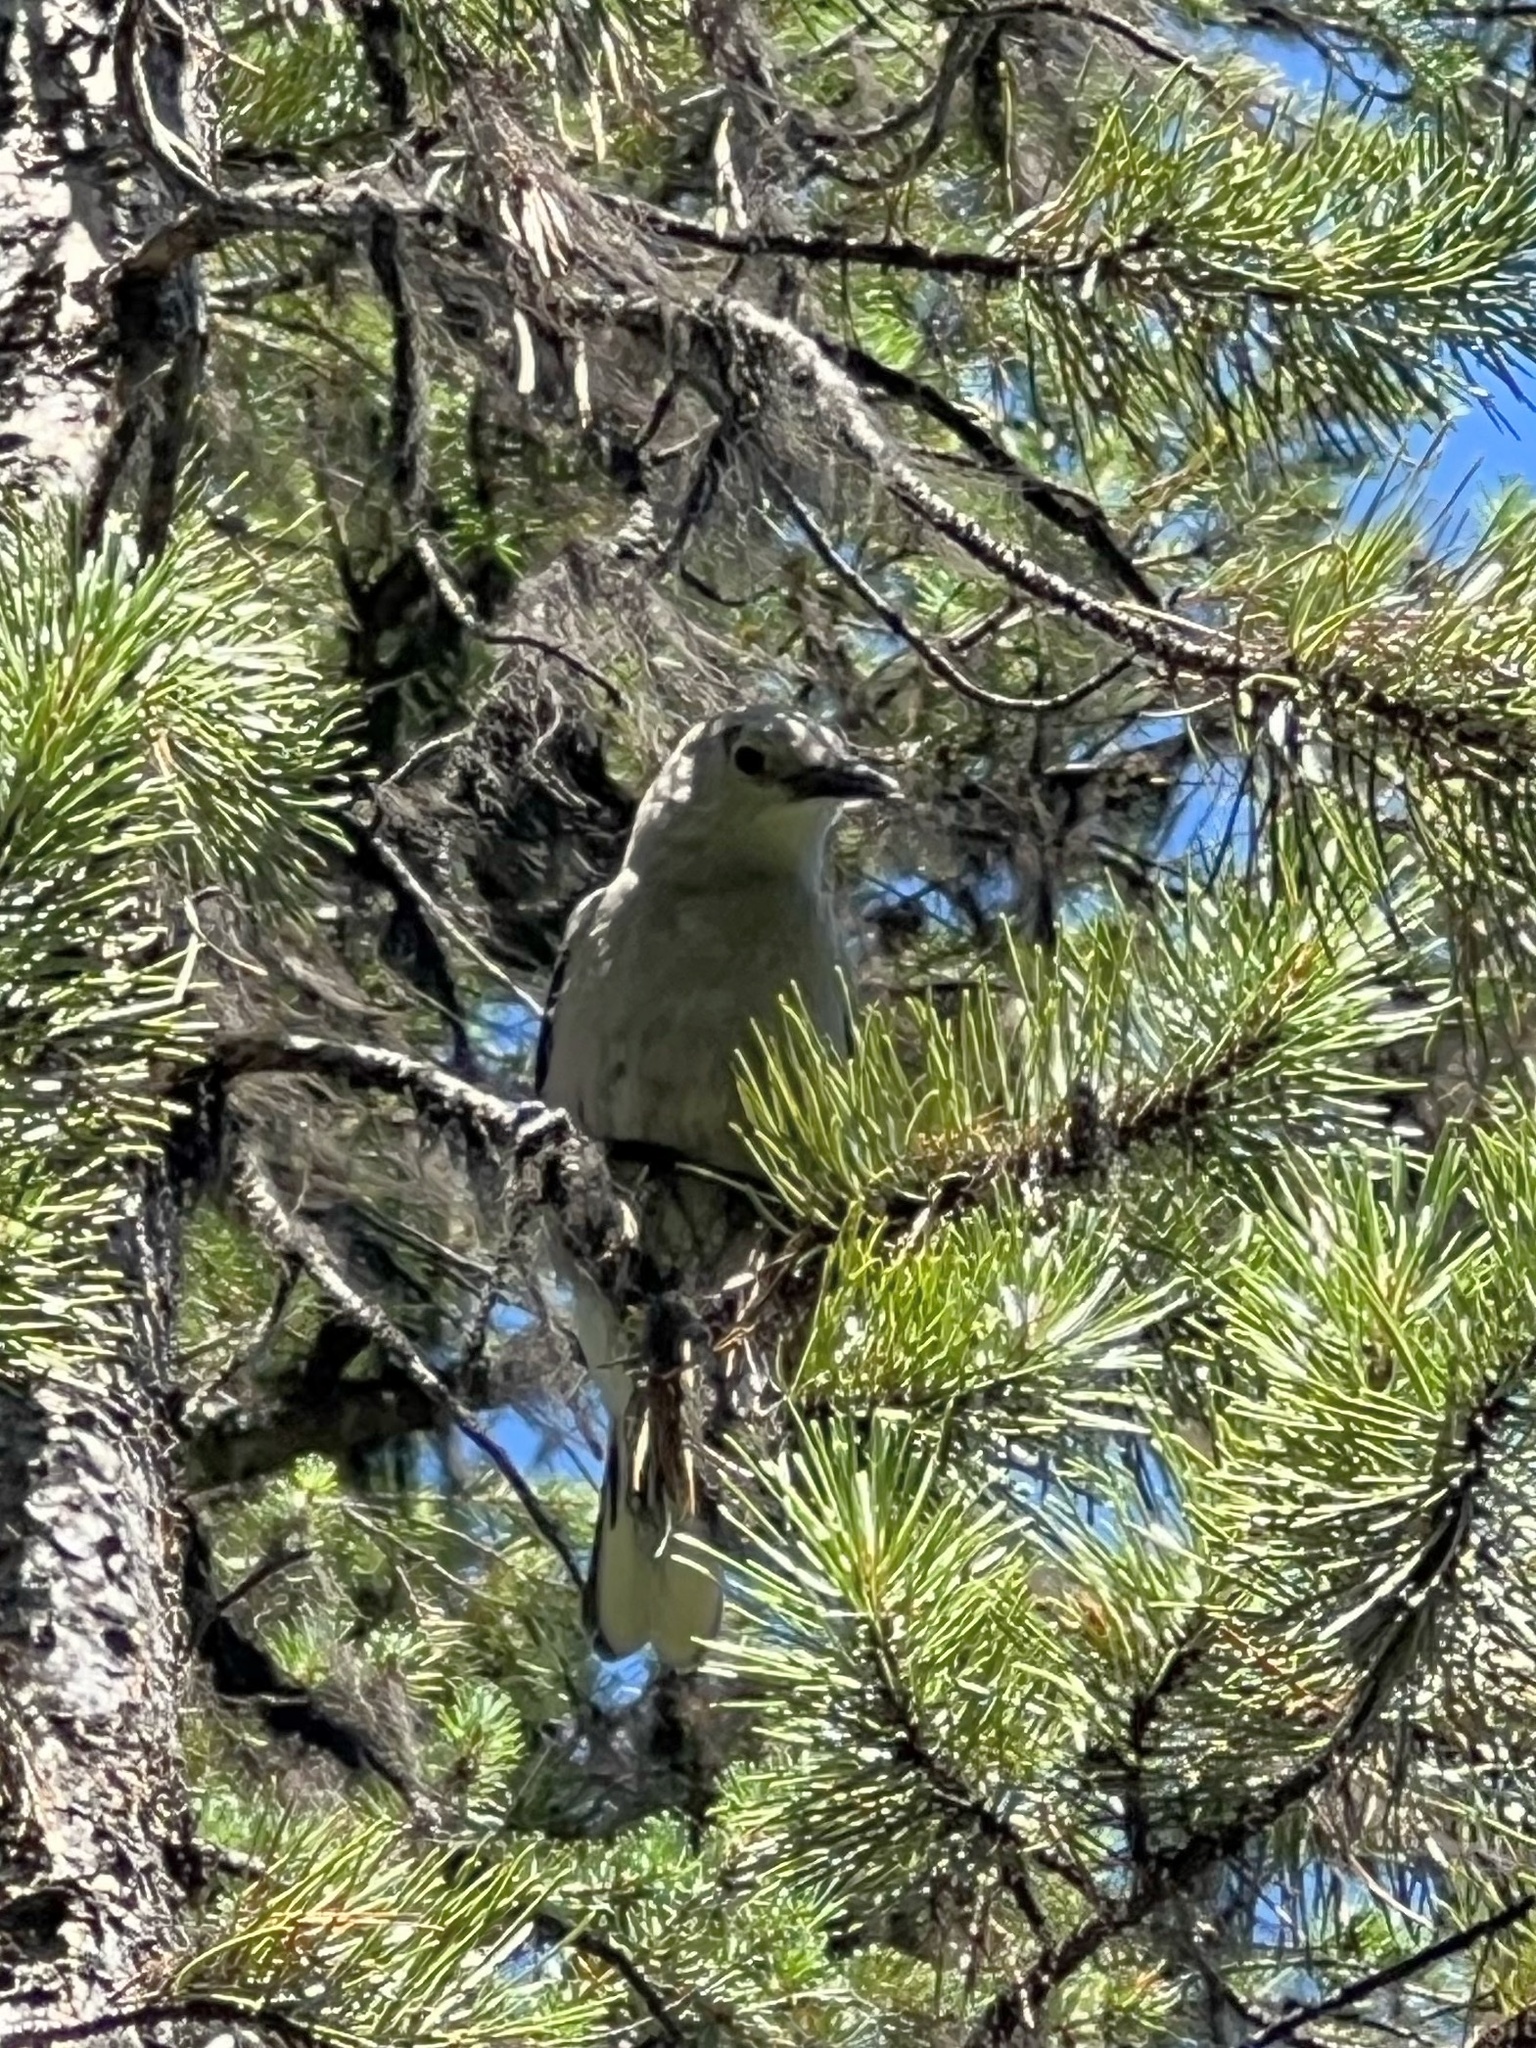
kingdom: Animalia
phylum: Chordata
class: Aves
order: Passeriformes
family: Corvidae
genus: Nucifraga
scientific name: Nucifraga columbiana
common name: Clark's nutcracker
